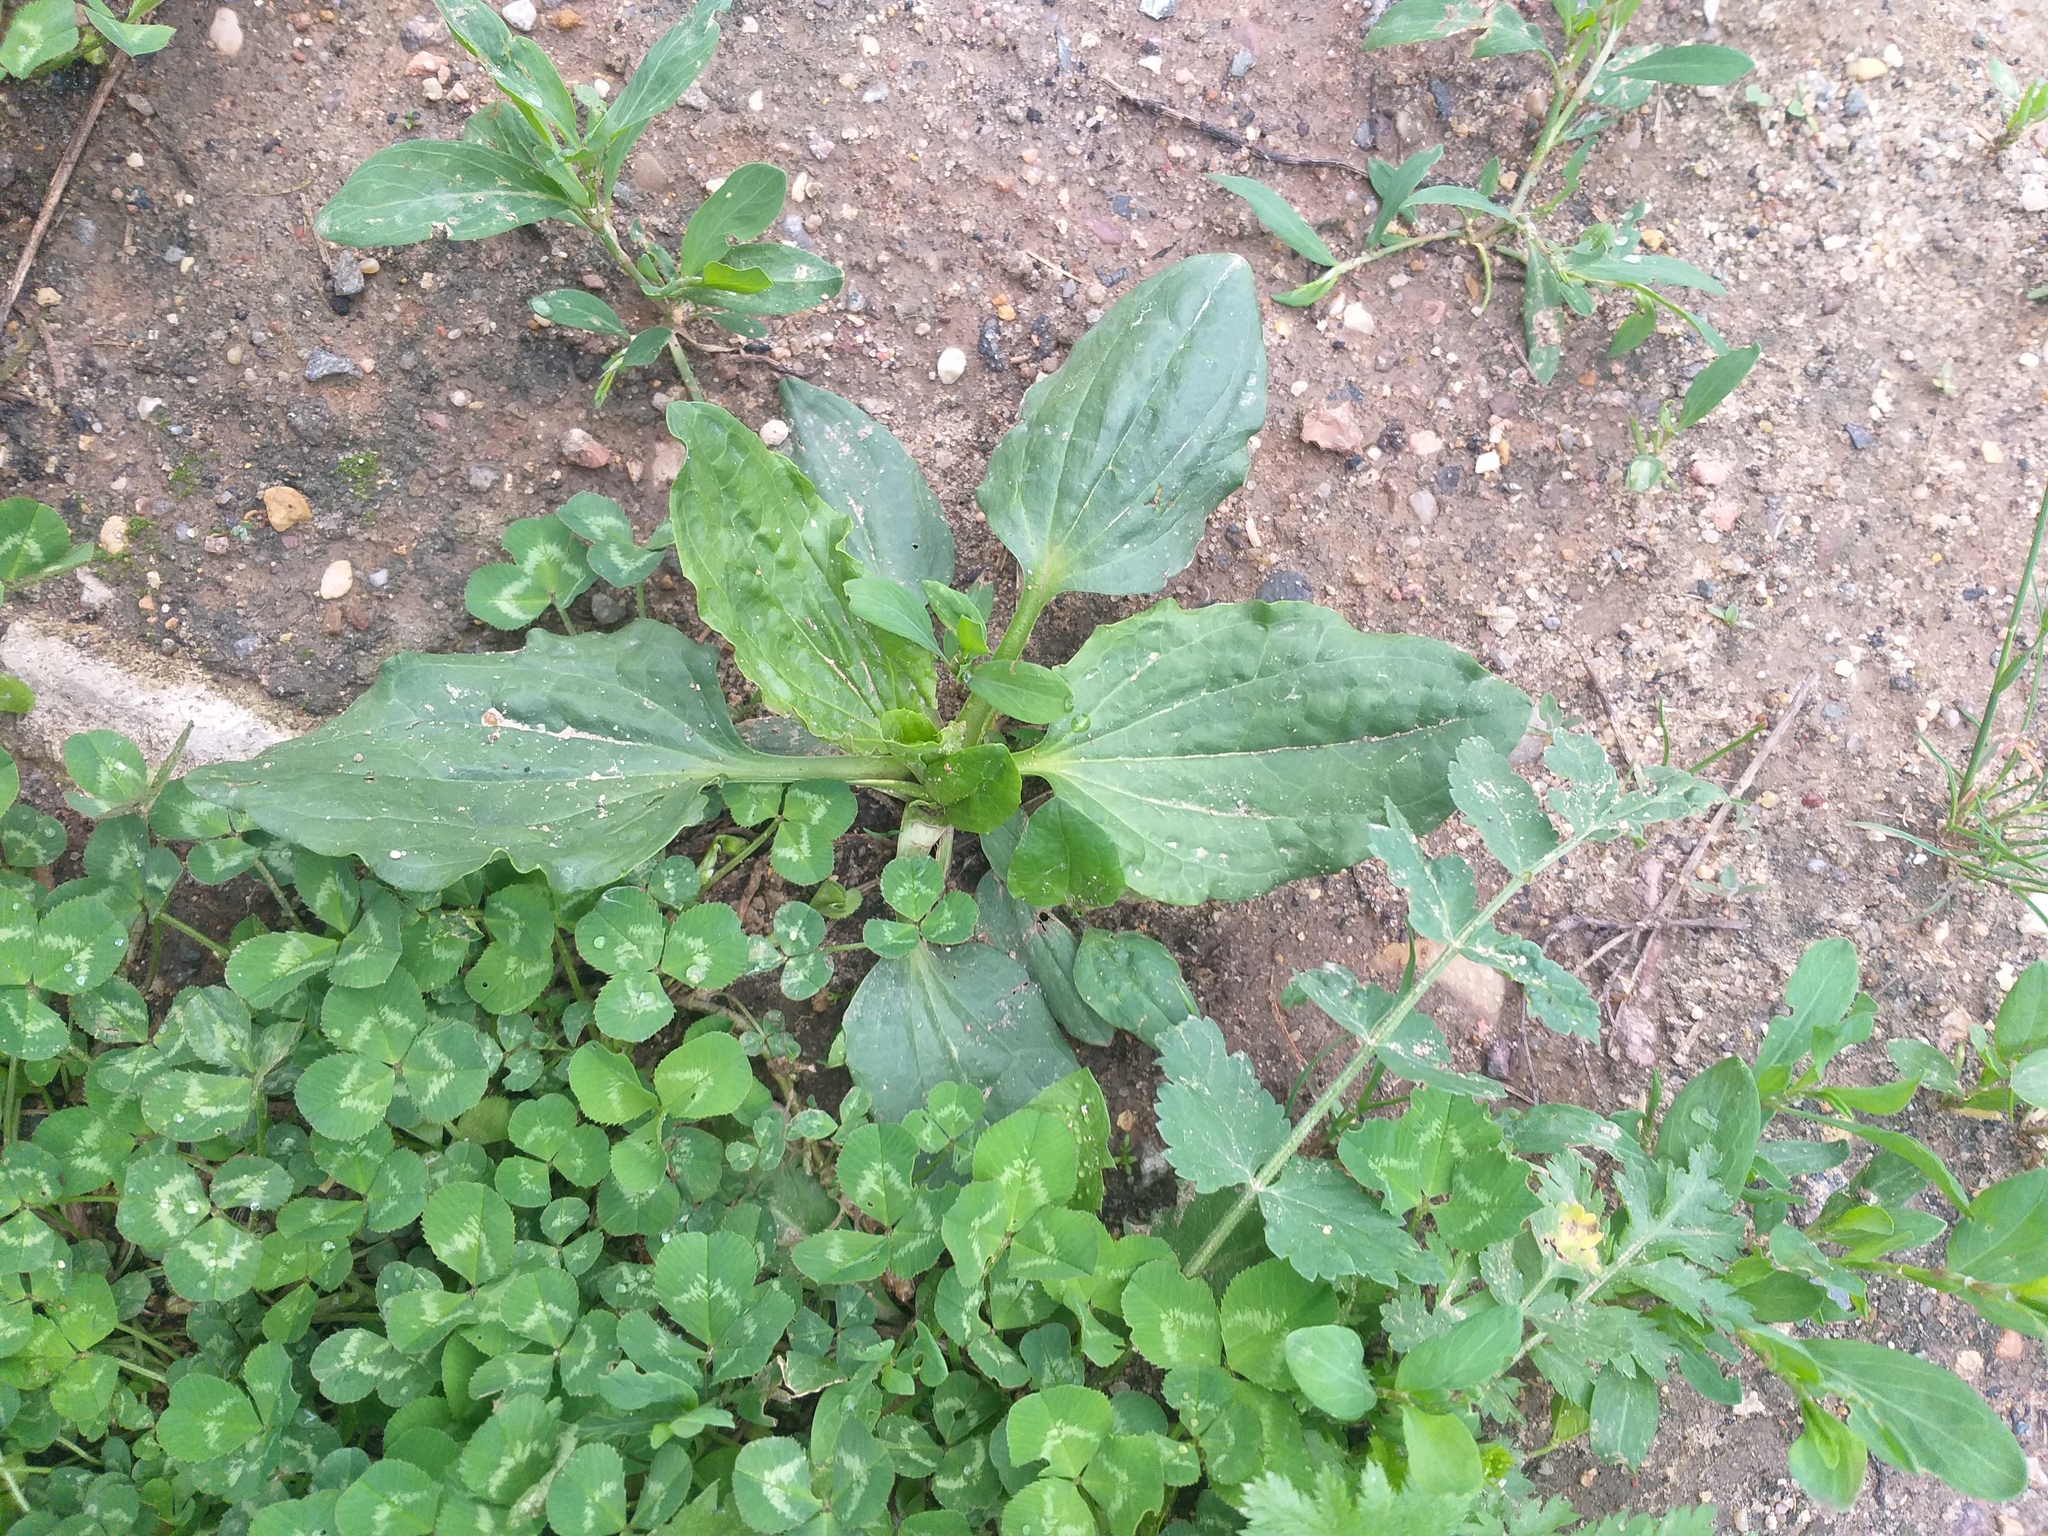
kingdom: Plantae
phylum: Tracheophyta
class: Magnoliopsida
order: Lamiales
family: Plantaginaceae
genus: Plantago
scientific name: Plantago major
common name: Common plantain
